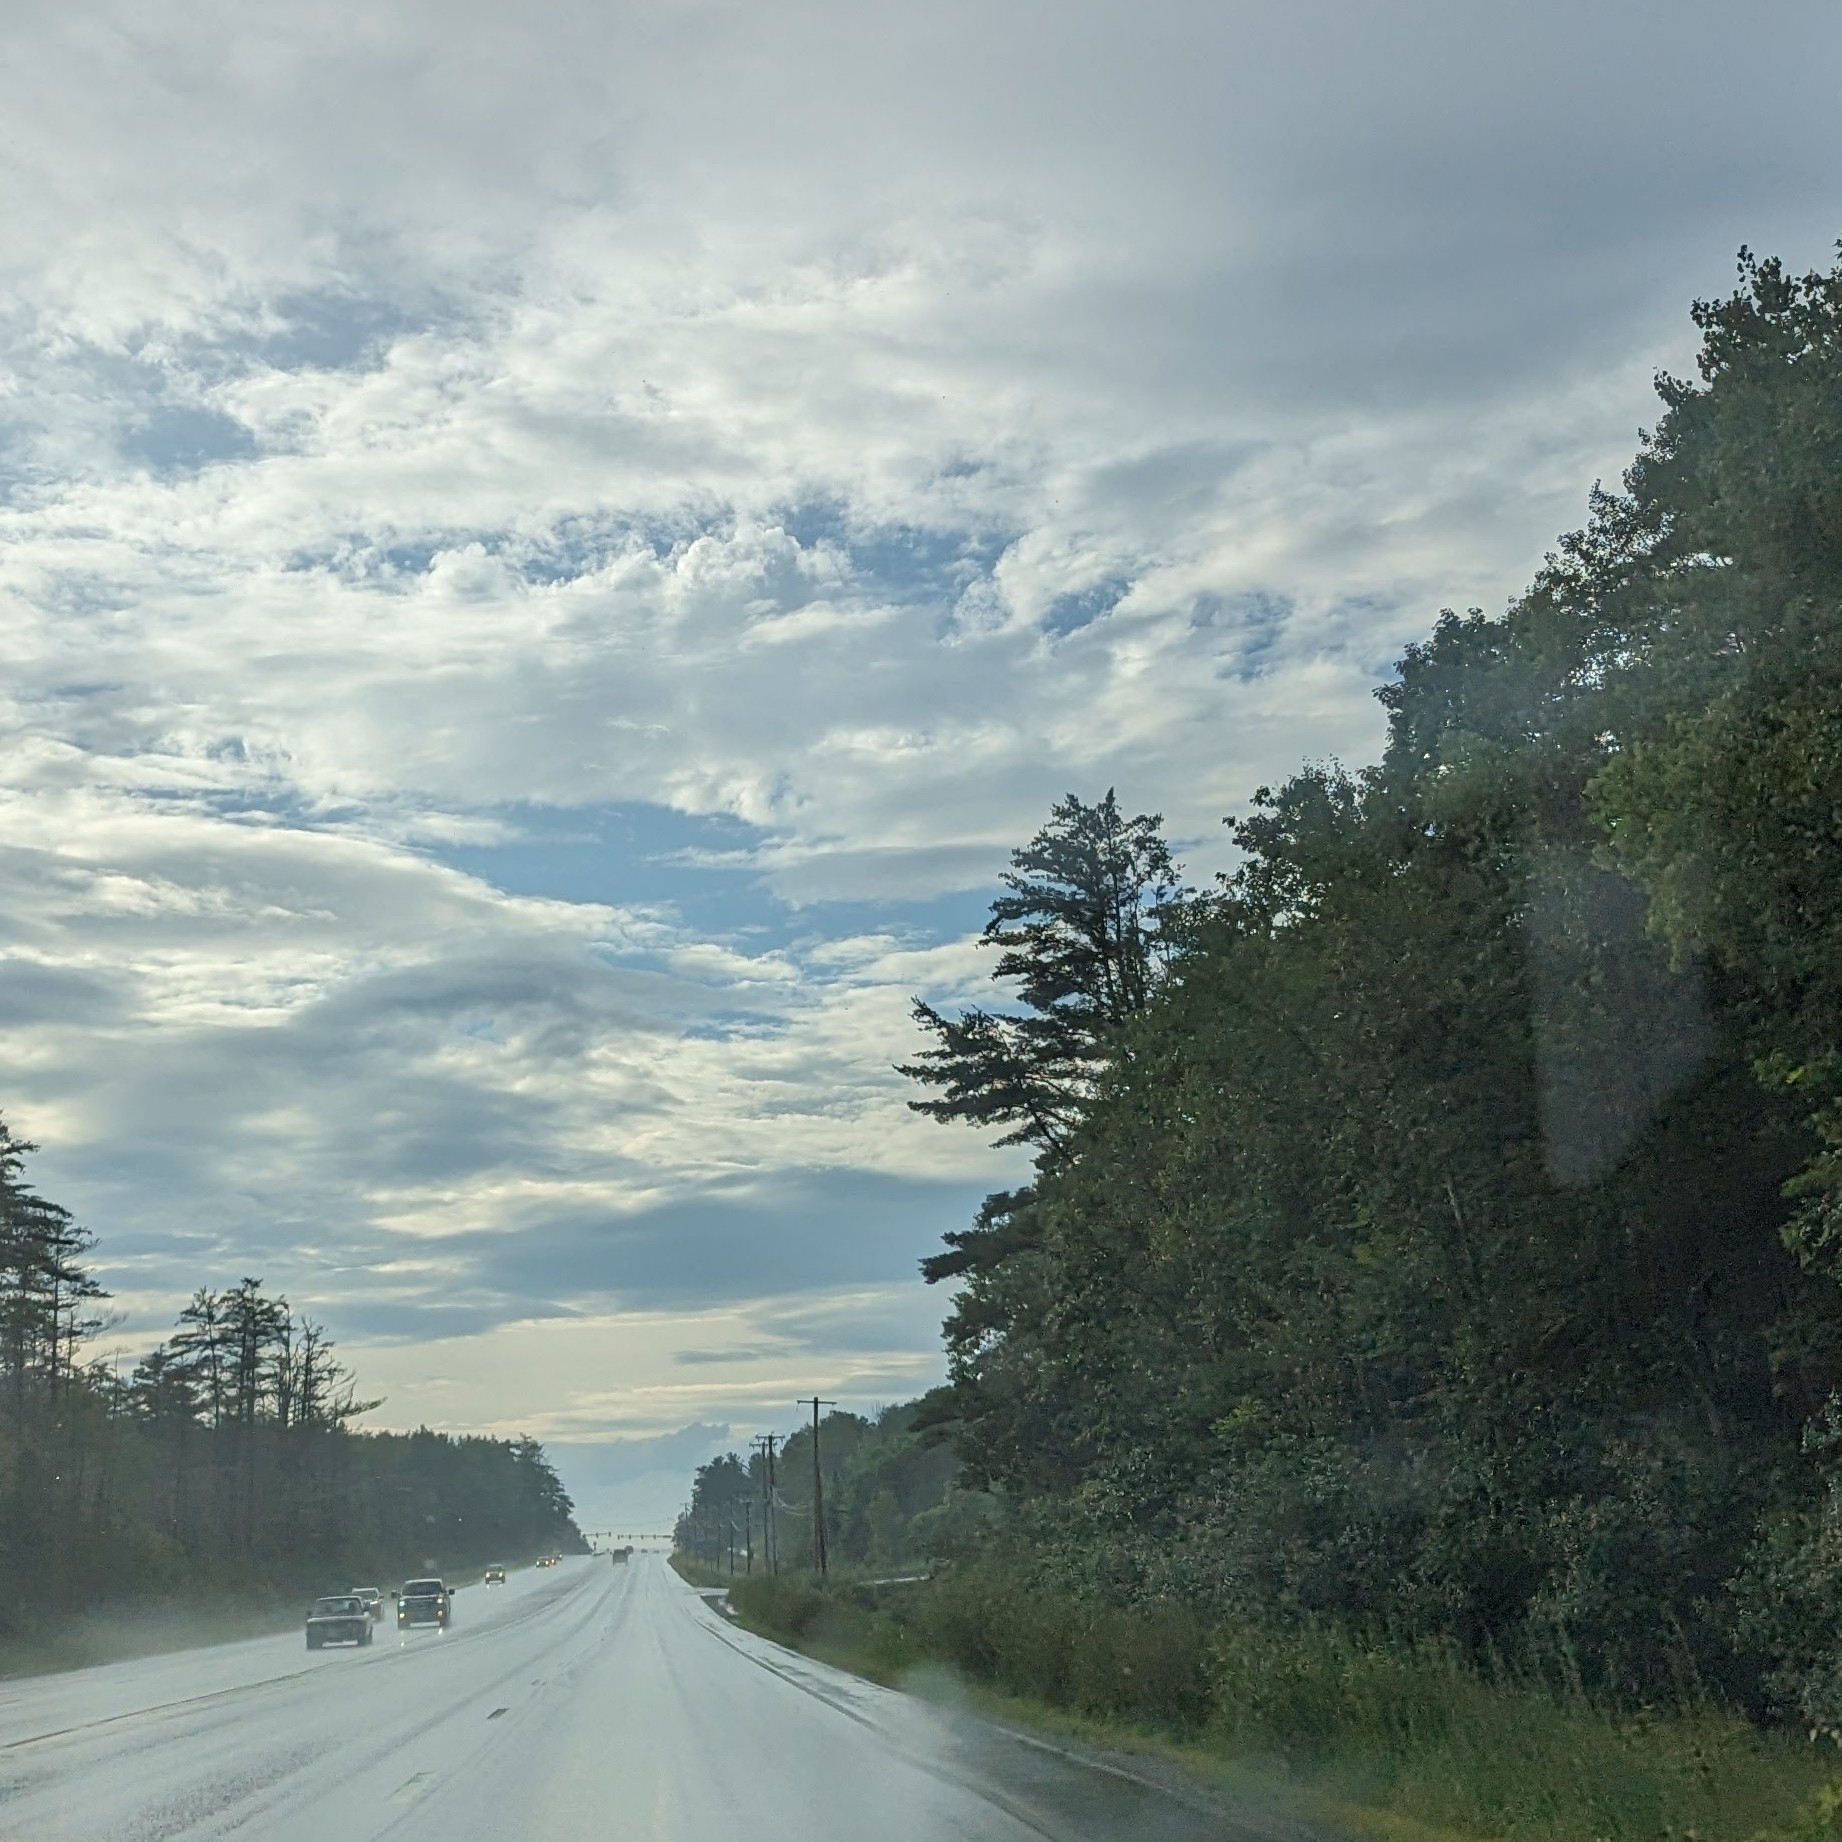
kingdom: Plantae
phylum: Tracheophyta
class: Pinopsida
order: Pinales
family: Pinaceae
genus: Pinus
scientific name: Pinus strobus
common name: Weymouth pine
